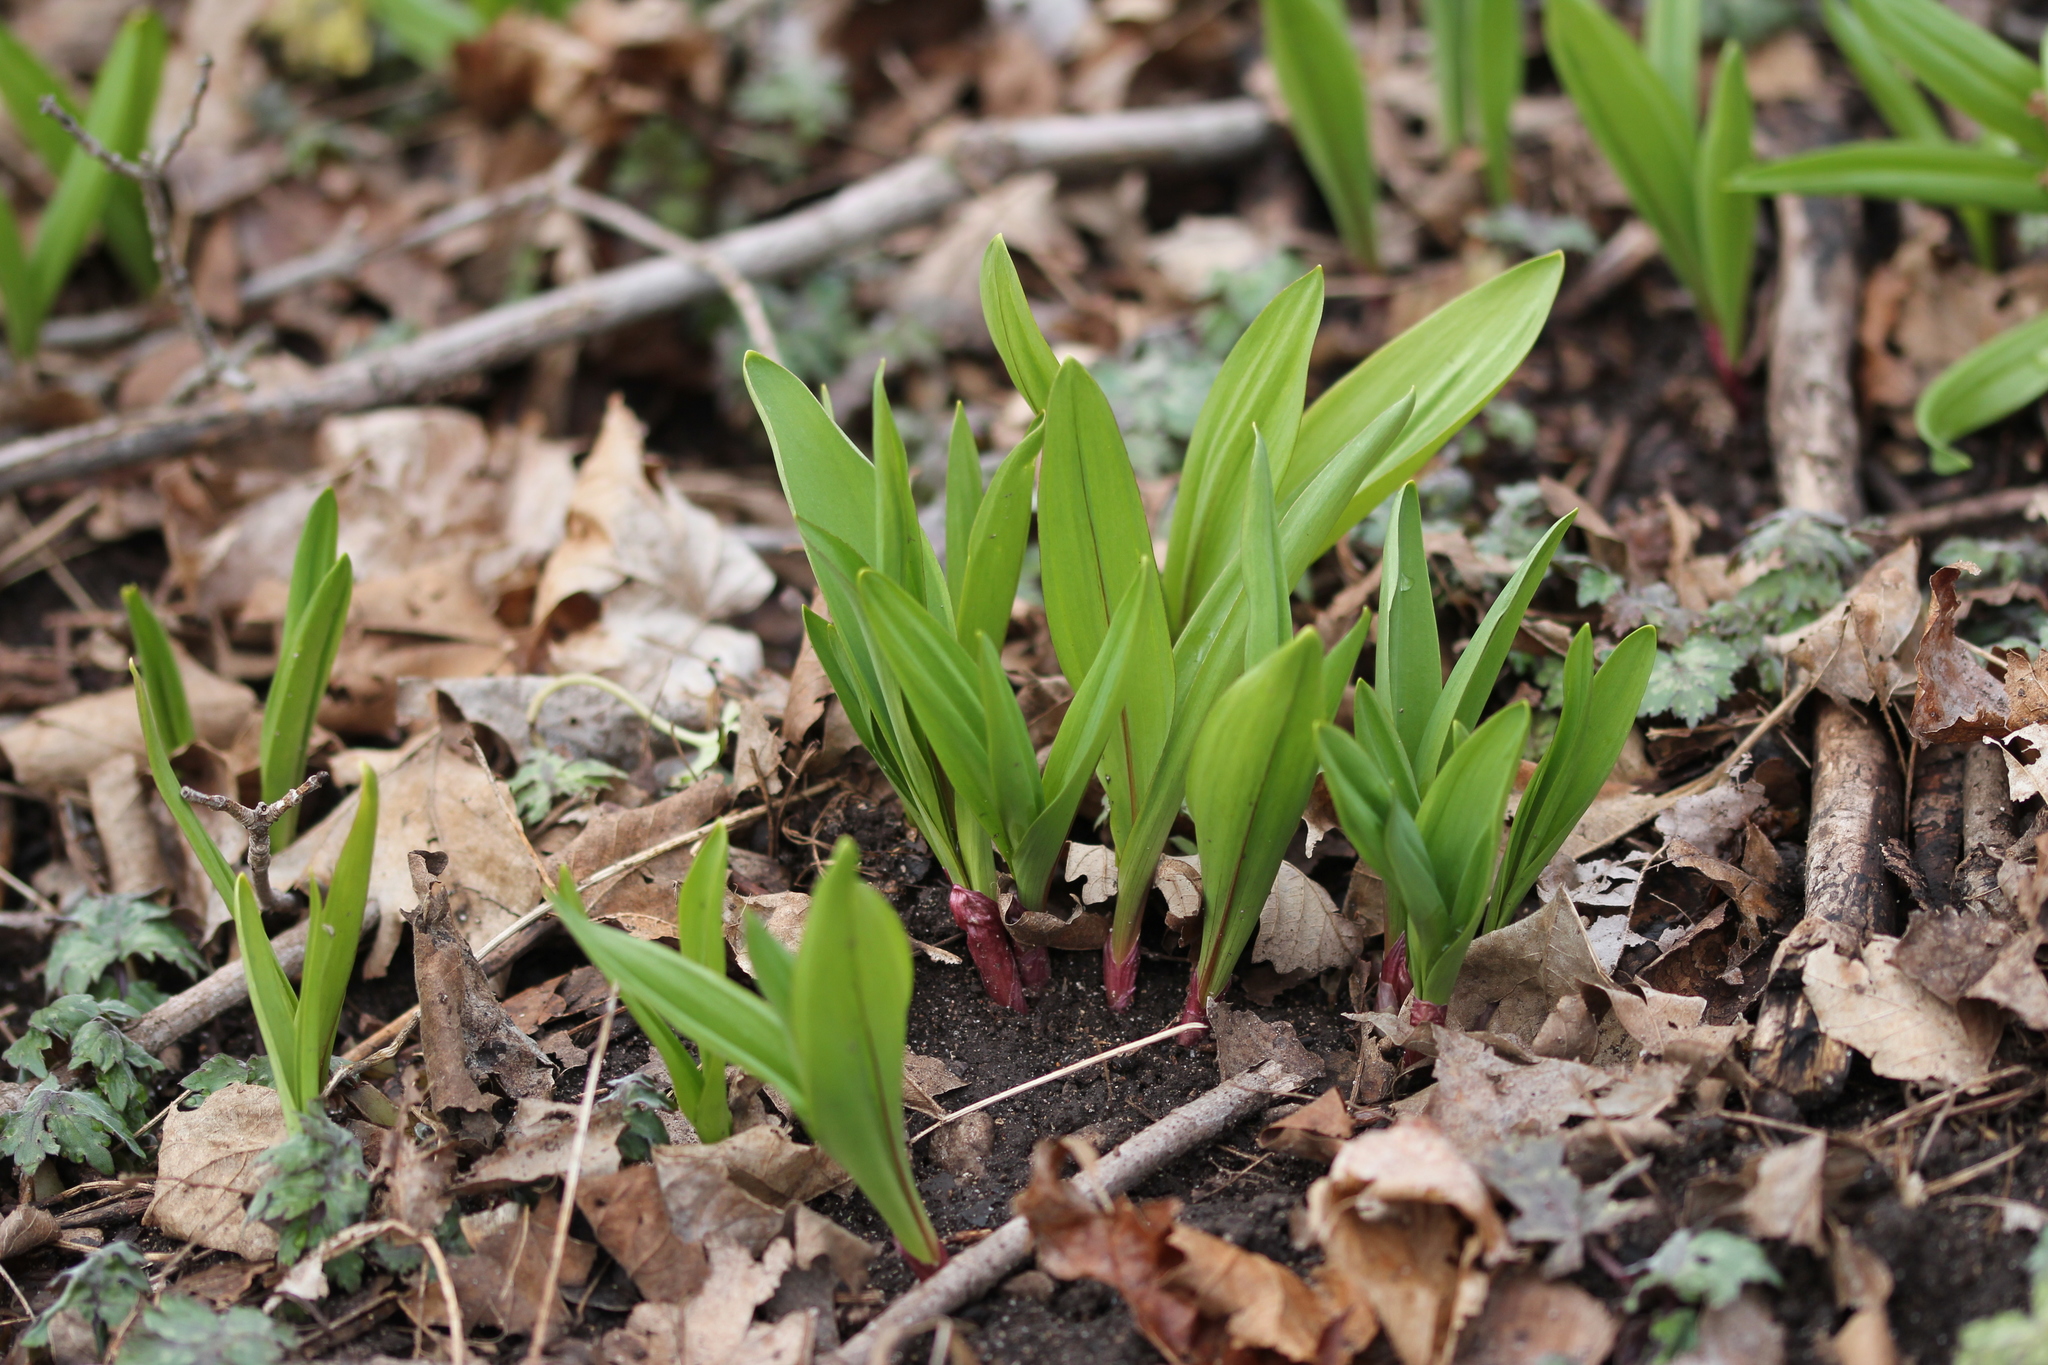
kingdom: Plantae
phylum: Tracheophyta
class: Liliopsida
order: Asparagales
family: Amaryllidaceae
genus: Allium
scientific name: Allium tricoccum
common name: Ramp
